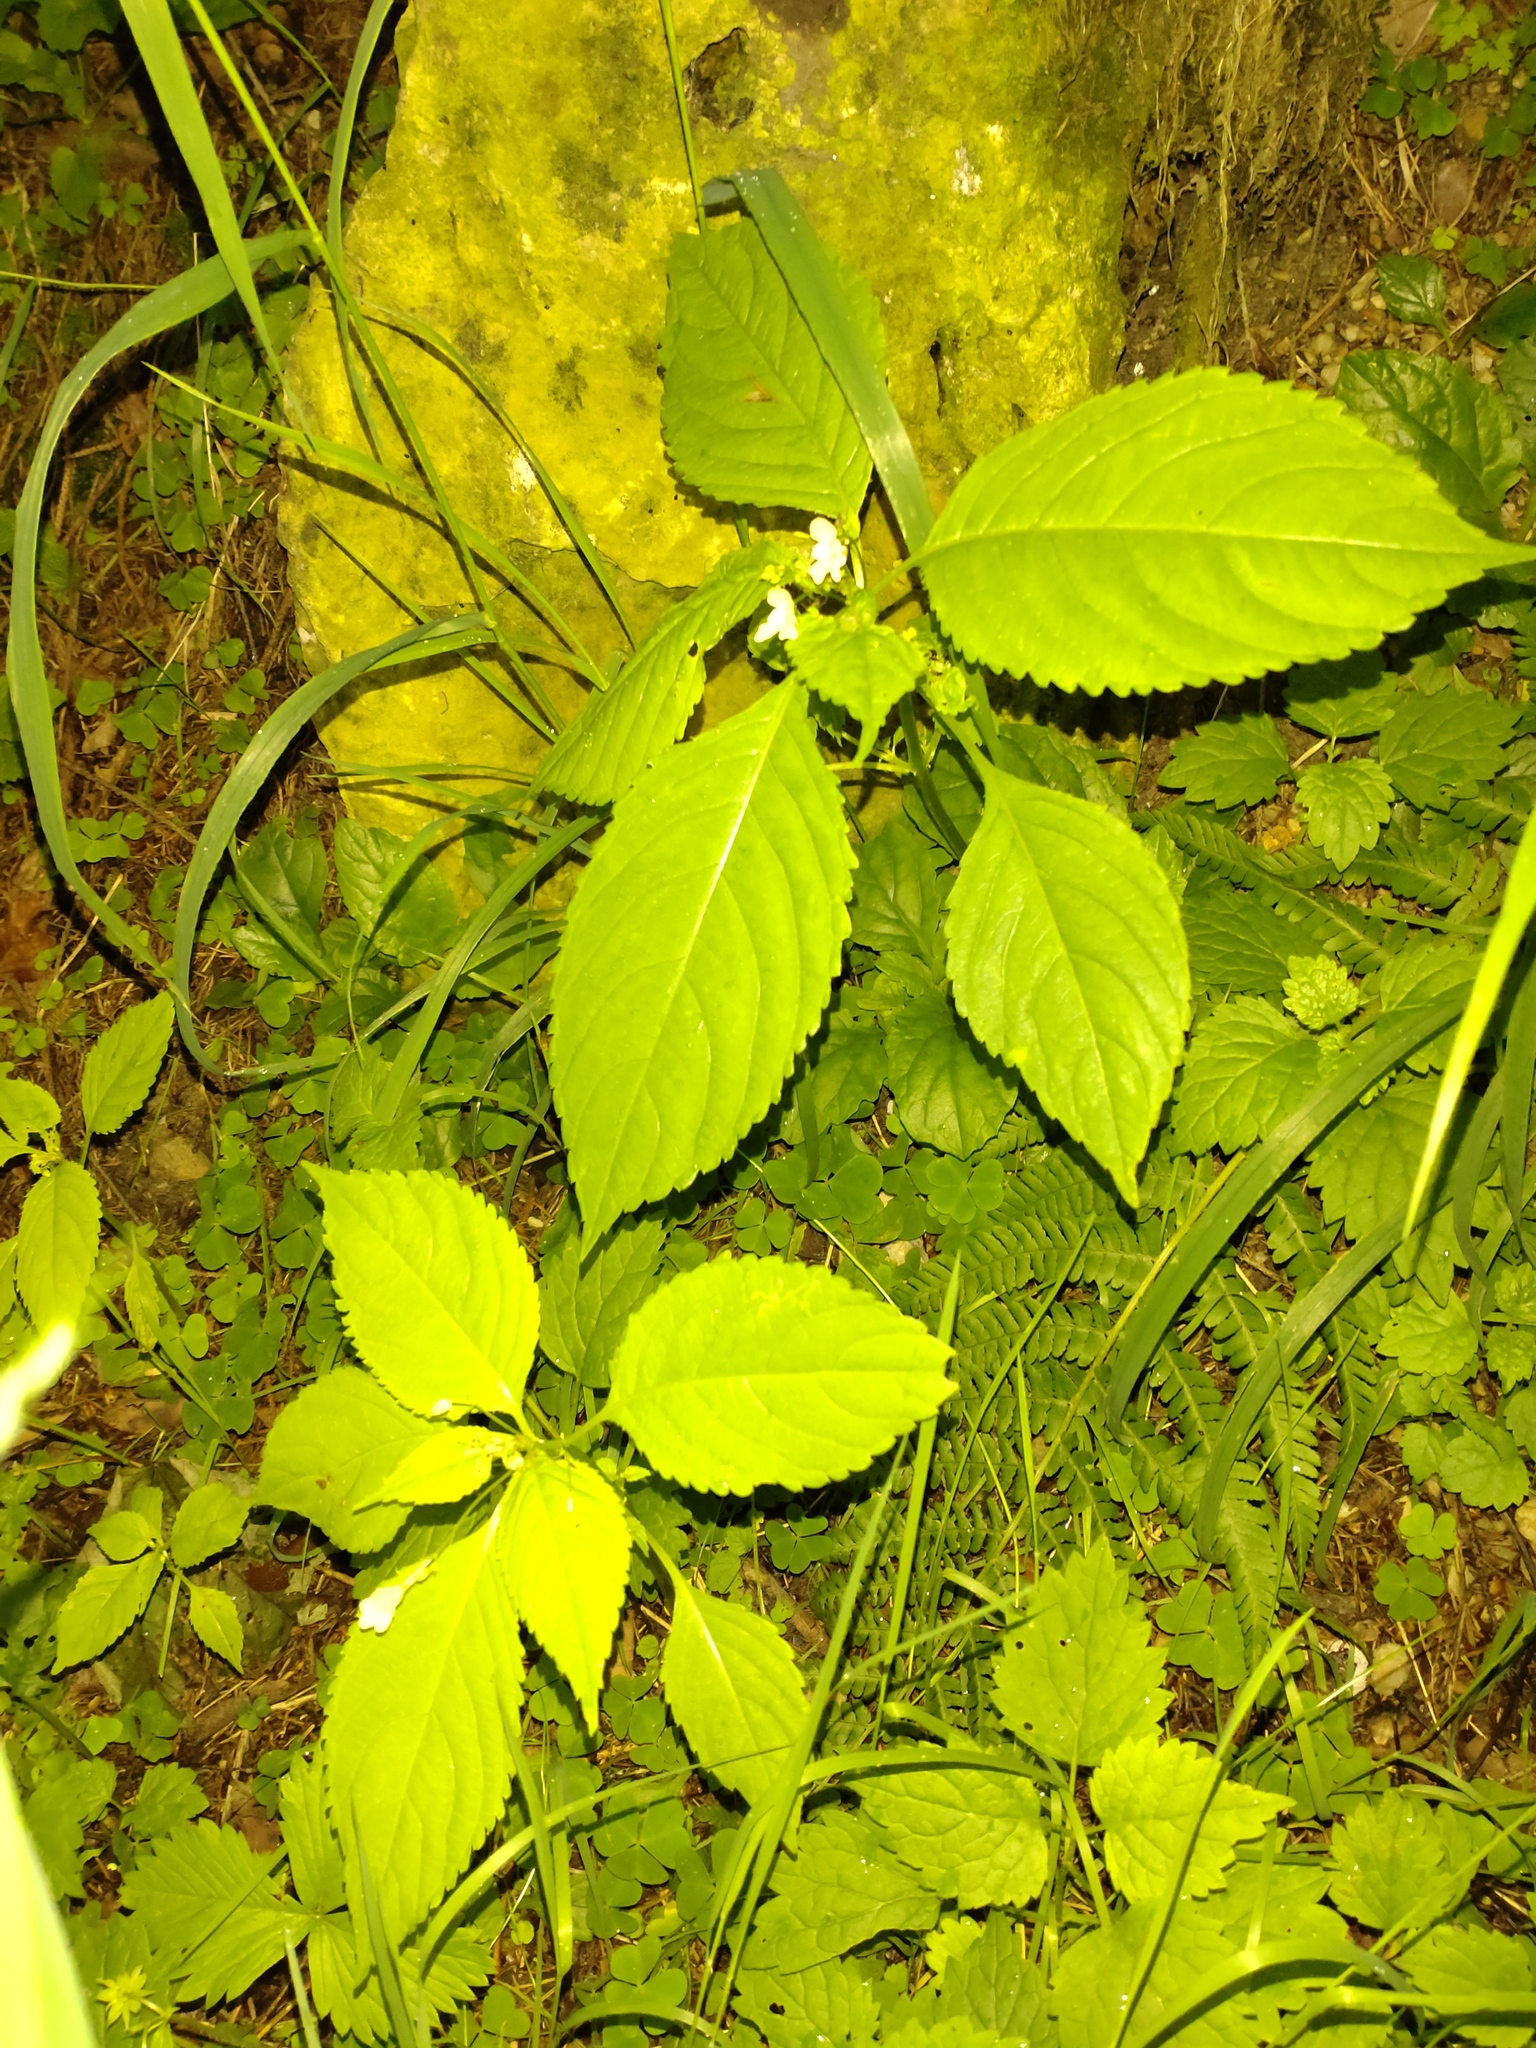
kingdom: Plantae
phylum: Tracheophyta
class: Magnoliopsida
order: Ericales
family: Balsaminaceae
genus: Impatiens
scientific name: Impatiens parviflora
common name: Small balsam
